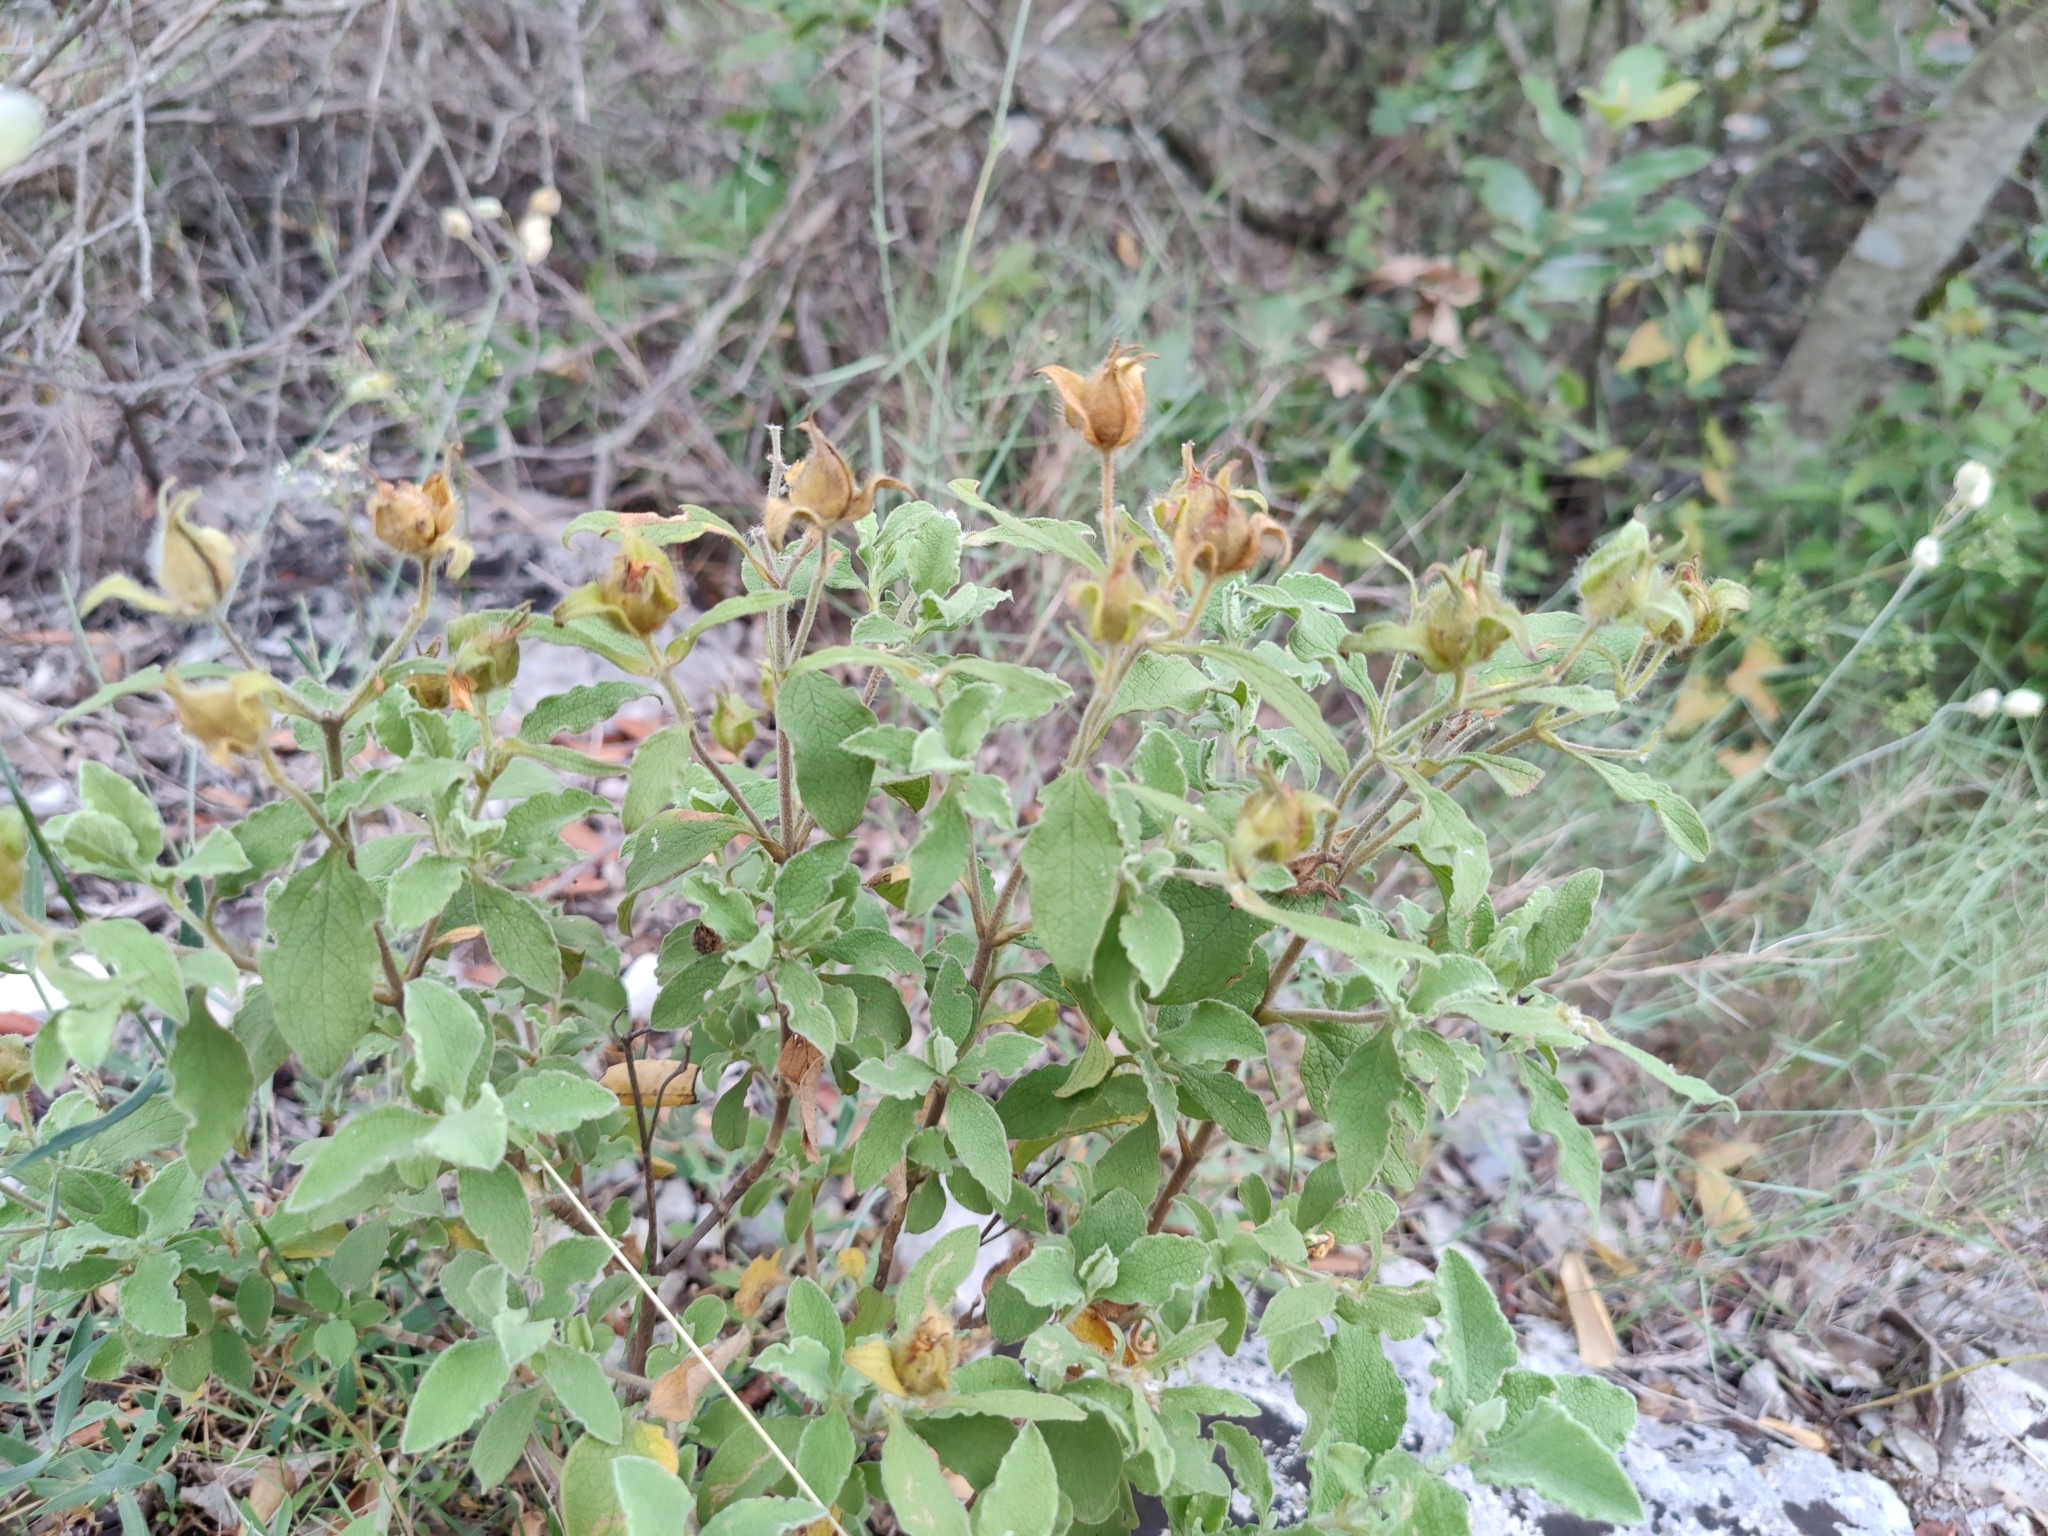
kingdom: Plantae
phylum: Tracheophyta
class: Magnoliopsida
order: Malvales
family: Cistaceae
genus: Cistus
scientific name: Cistus creticus
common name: Cretan rockrose
